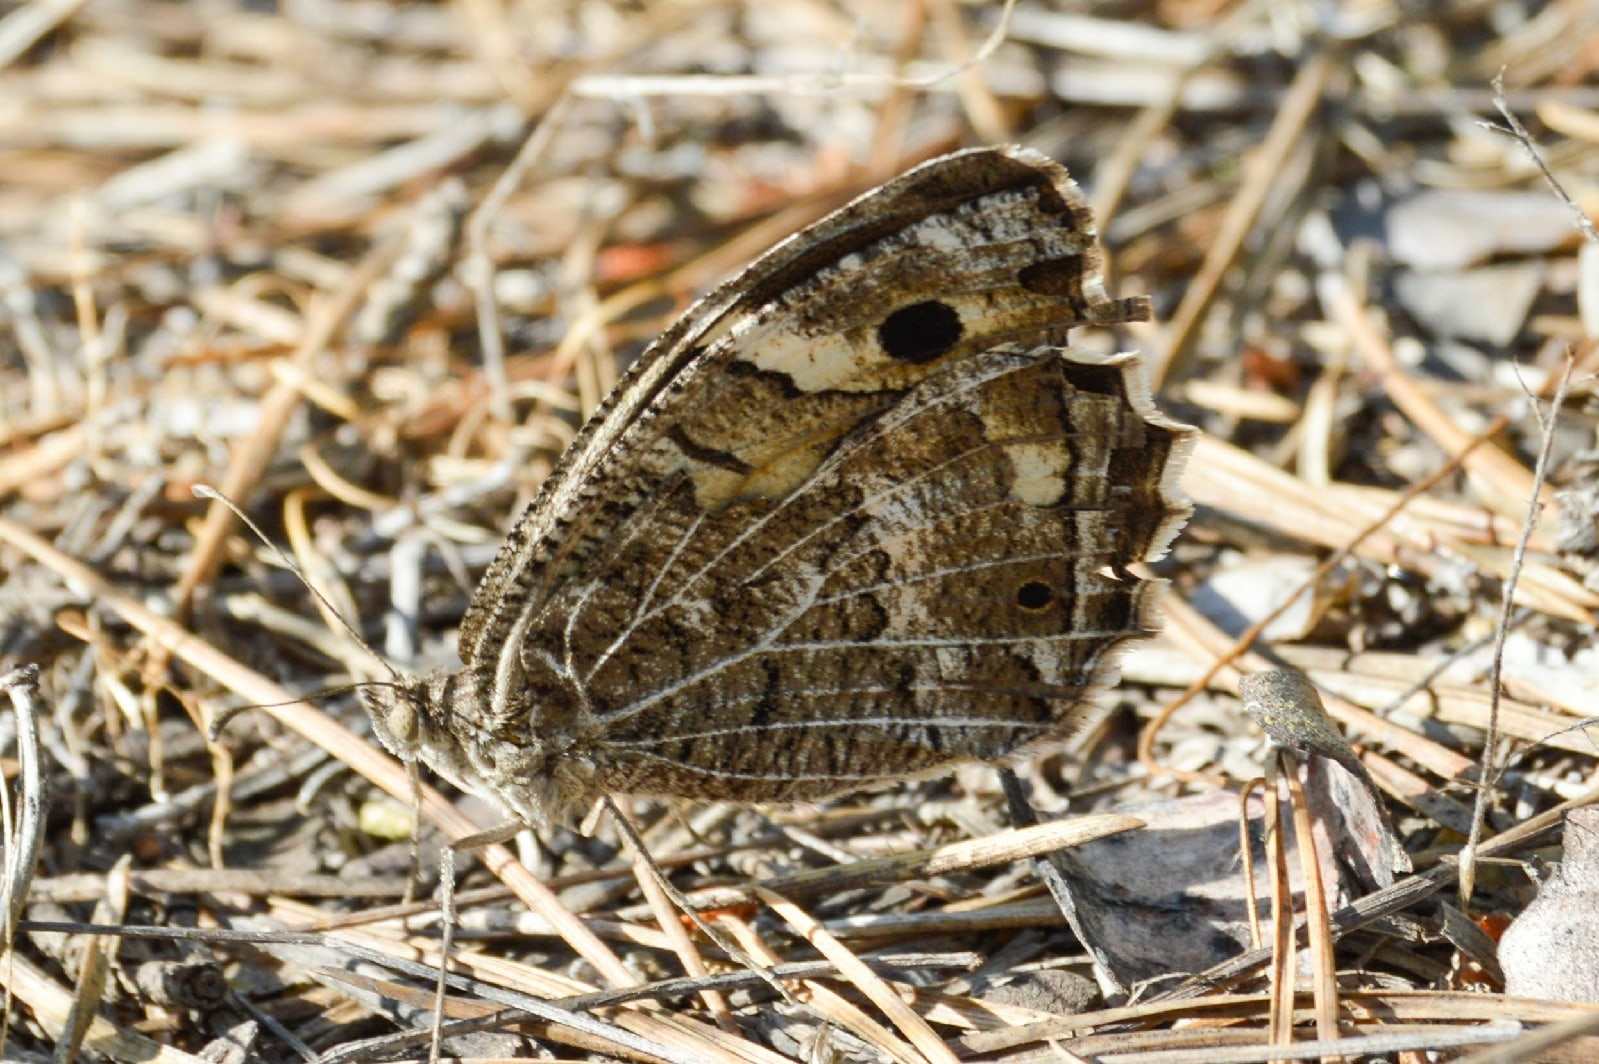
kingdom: Animalia
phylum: Arthropoda
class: Insecta
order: Lepidoptera
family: Nymphalidae
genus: Satyrus
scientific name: Satyrus Chazara persephone
